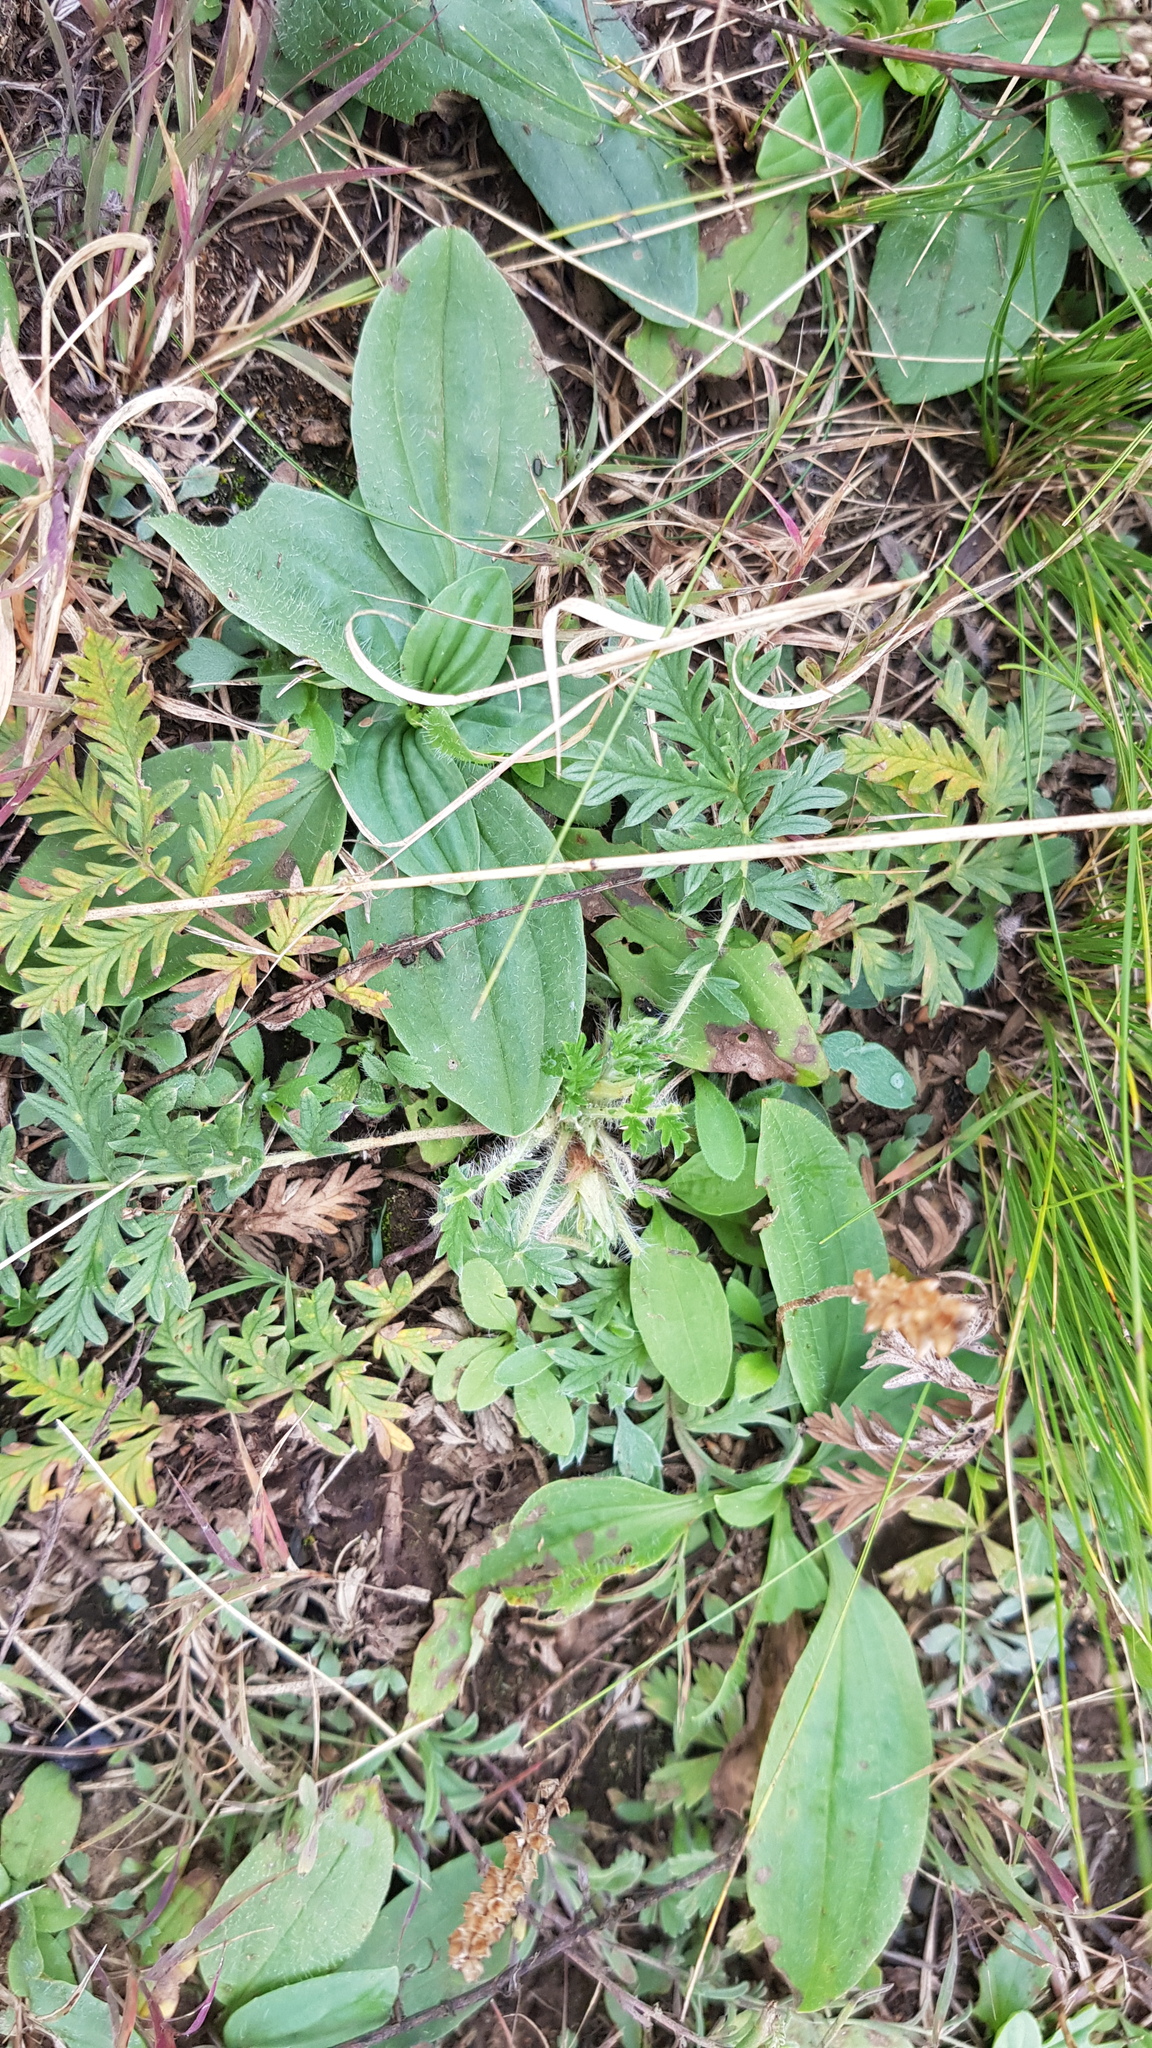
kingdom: Plantae
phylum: Tracheophyta
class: Magnoliopsida
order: Lamiales
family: Plantaginaceae
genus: Plantago
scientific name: Plantago depressa
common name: Depressed plantain
